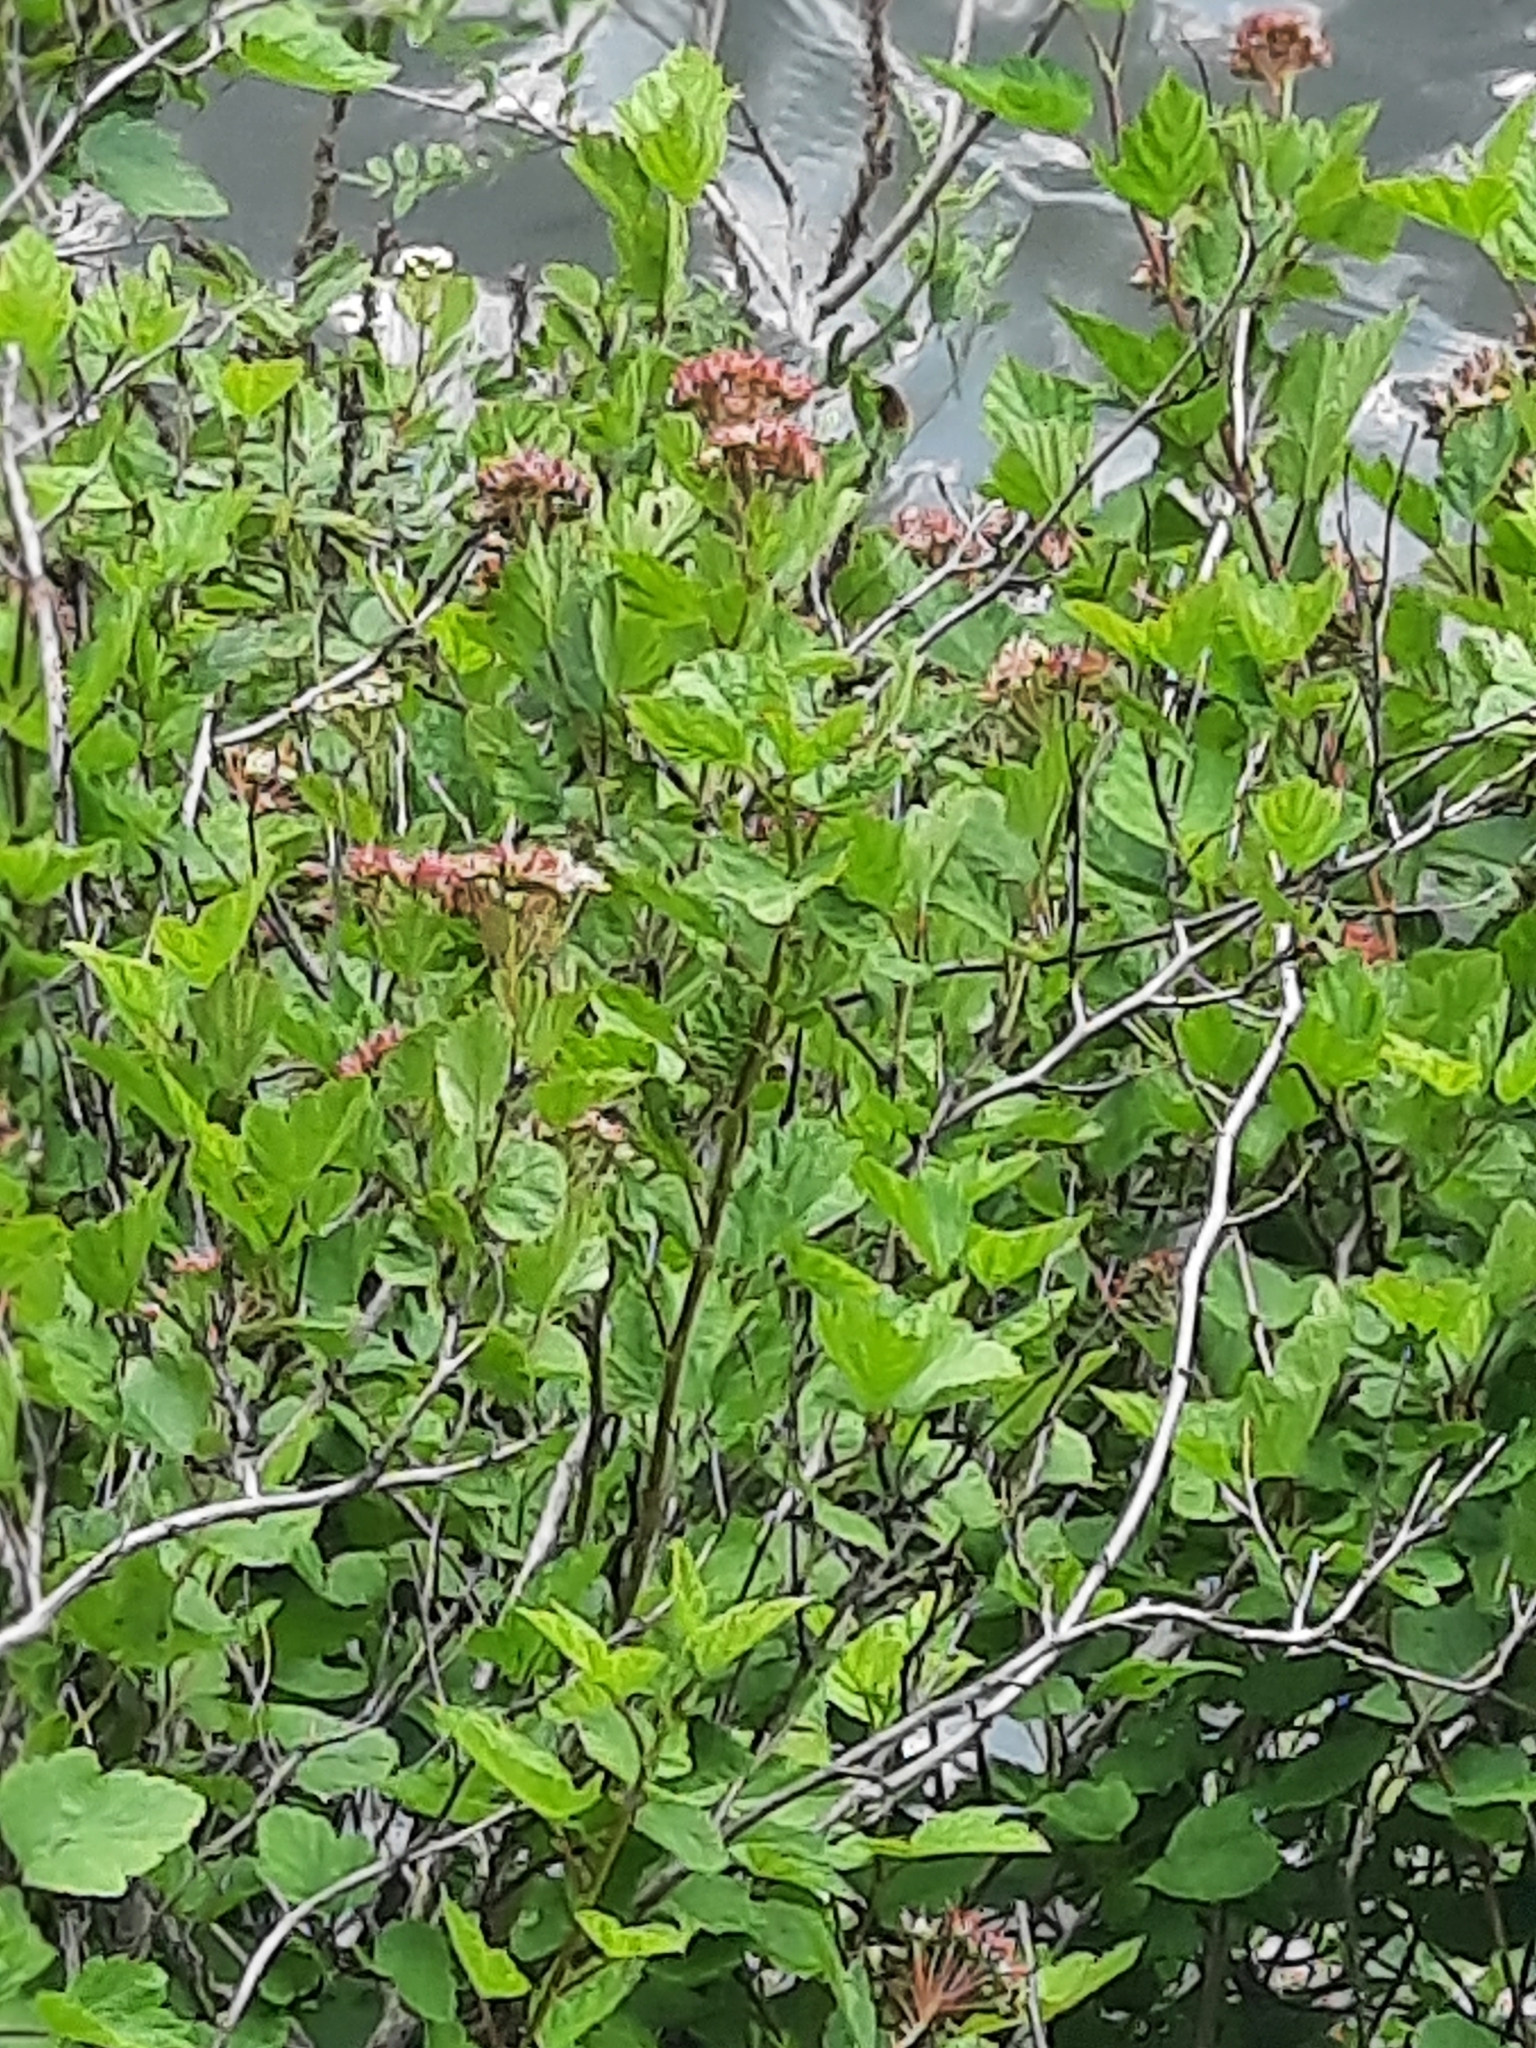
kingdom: Plantae
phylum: Tracheophyta
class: Magnoliopsida
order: Rosales
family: Rosaceae
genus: Physocarpus
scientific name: Physocarpus opulifolius
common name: Ninebark
